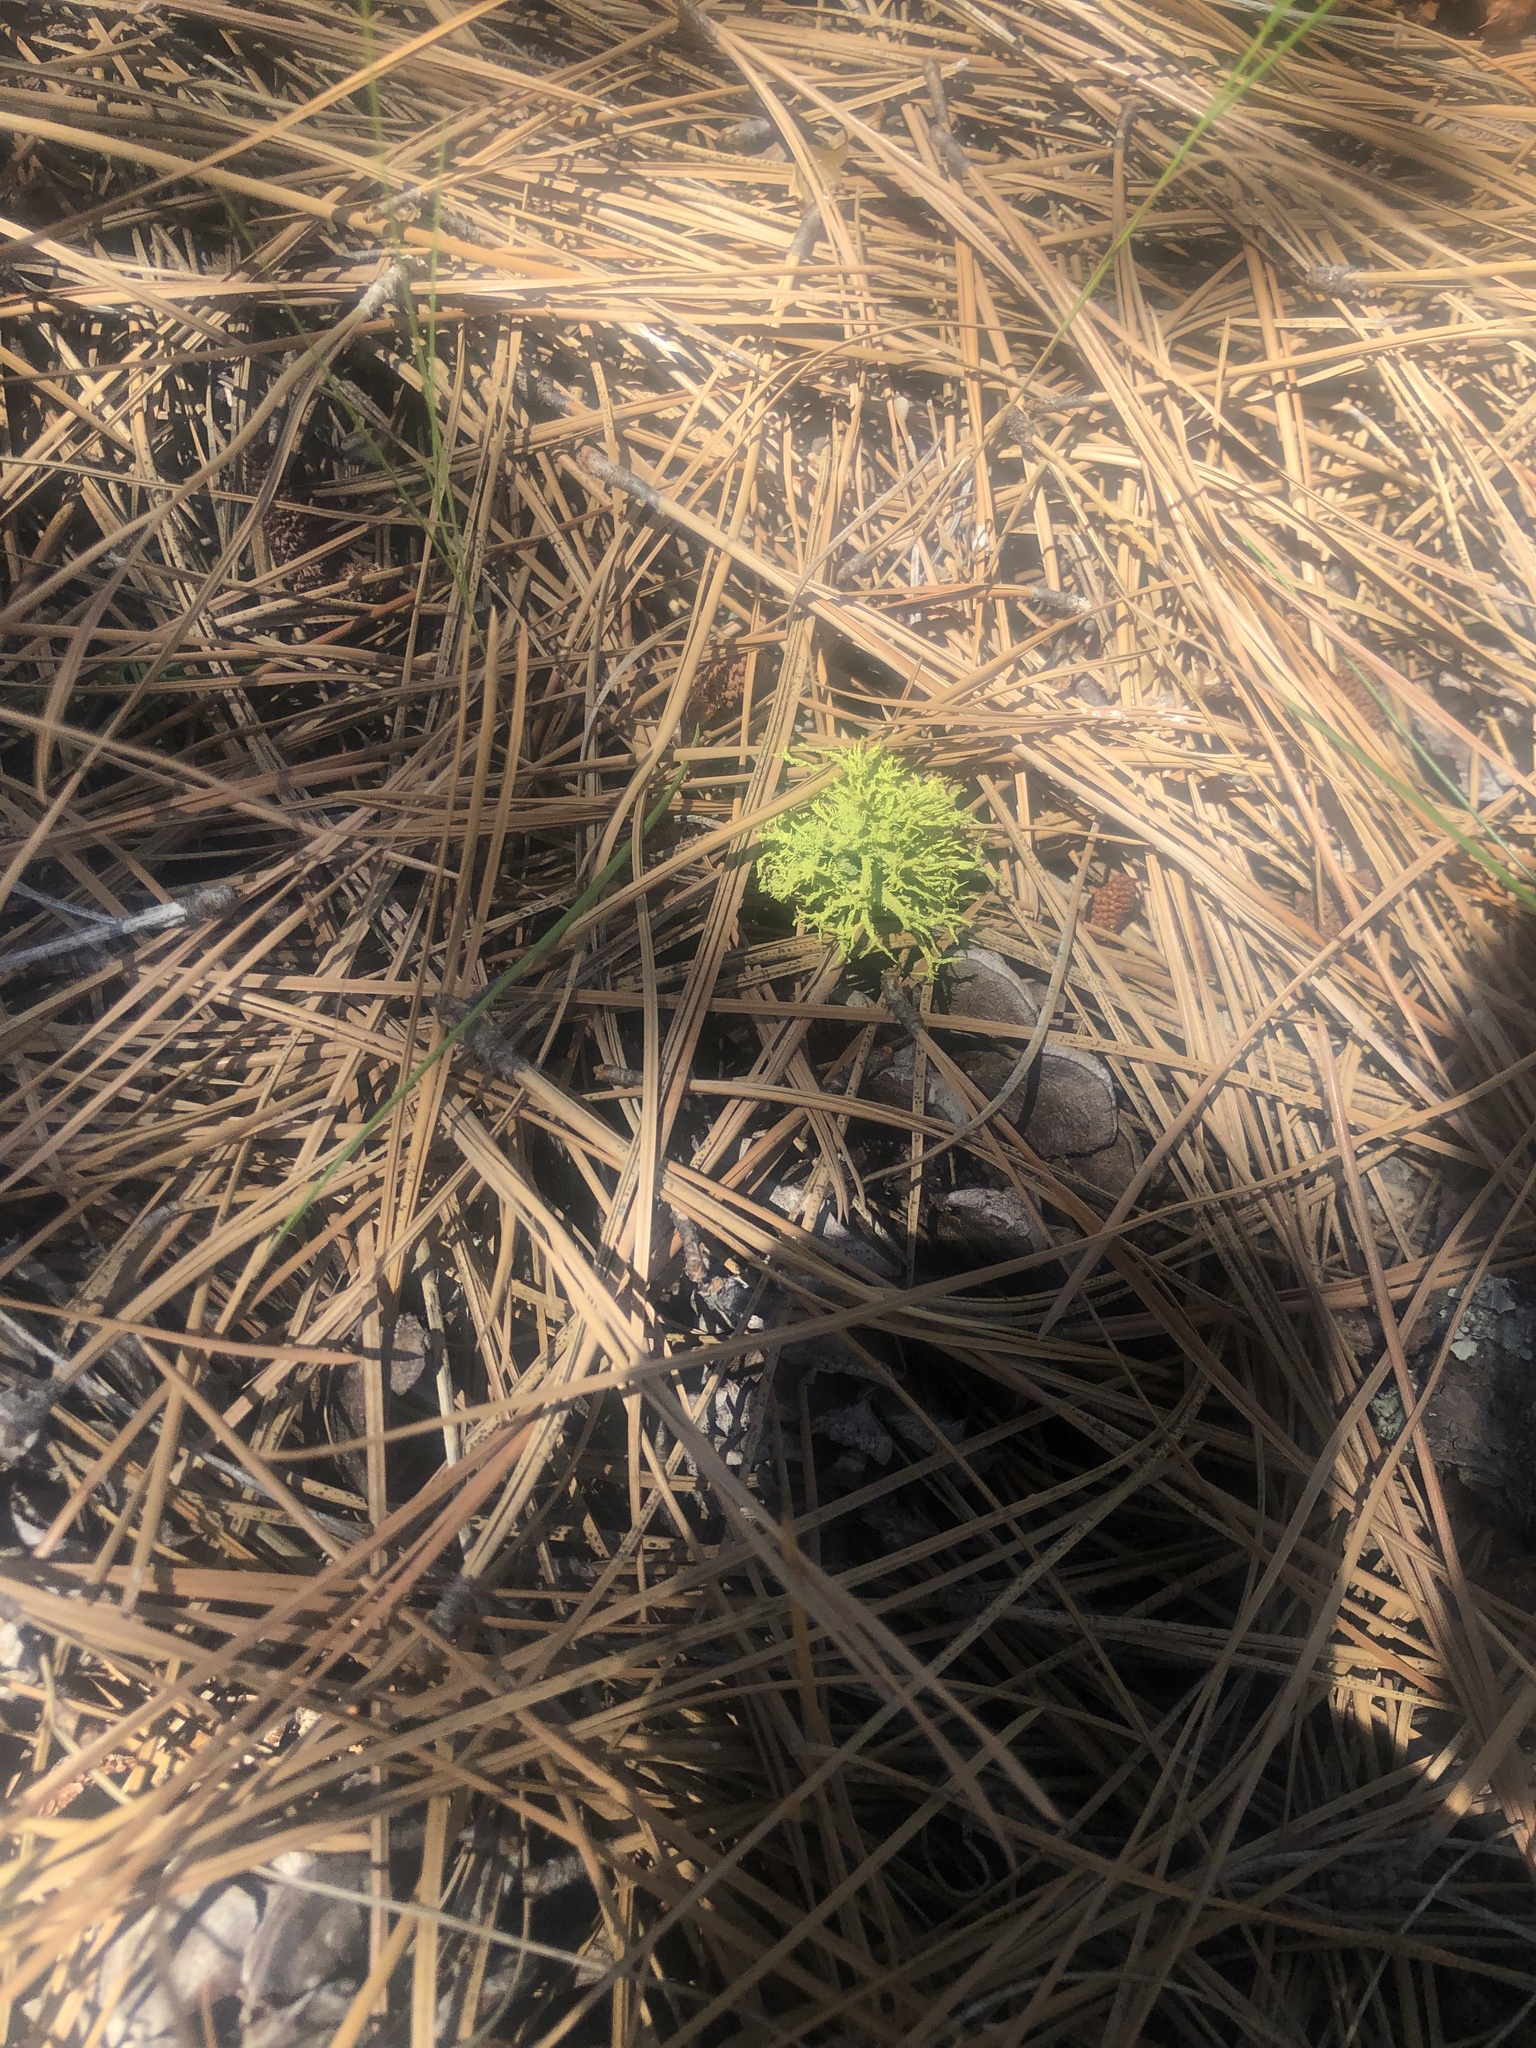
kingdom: Fungi
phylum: Ascomycota
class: Lecanoromycetes
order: Lecanorales
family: Parmeliaceae
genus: Letharia
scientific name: Letharia vulpina
